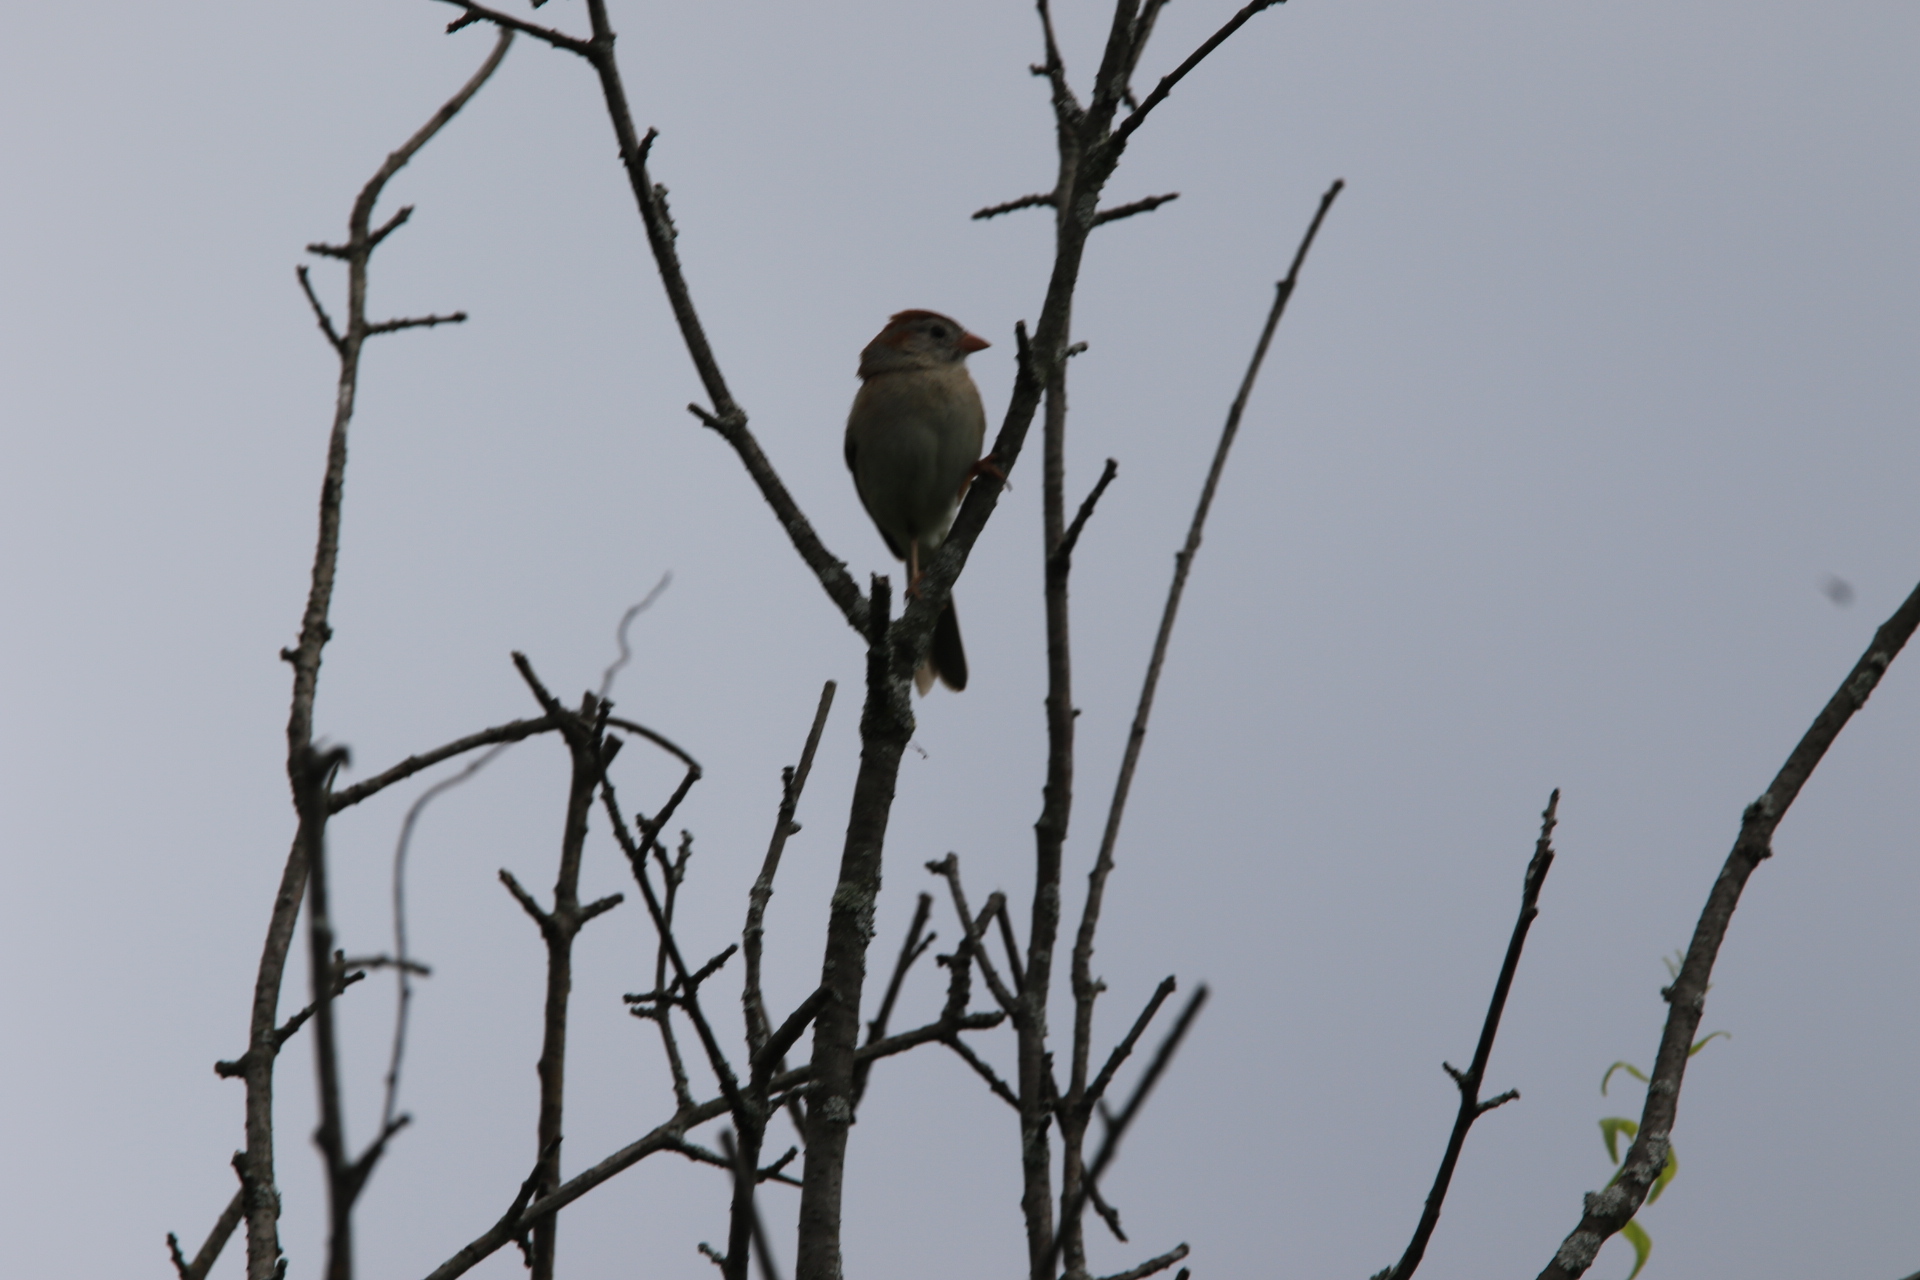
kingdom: Animalia
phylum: Chordata
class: Aves
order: Passeriformes
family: Passerellidae
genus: Spizella
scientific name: Spizella pusilla
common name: Field sparrow
